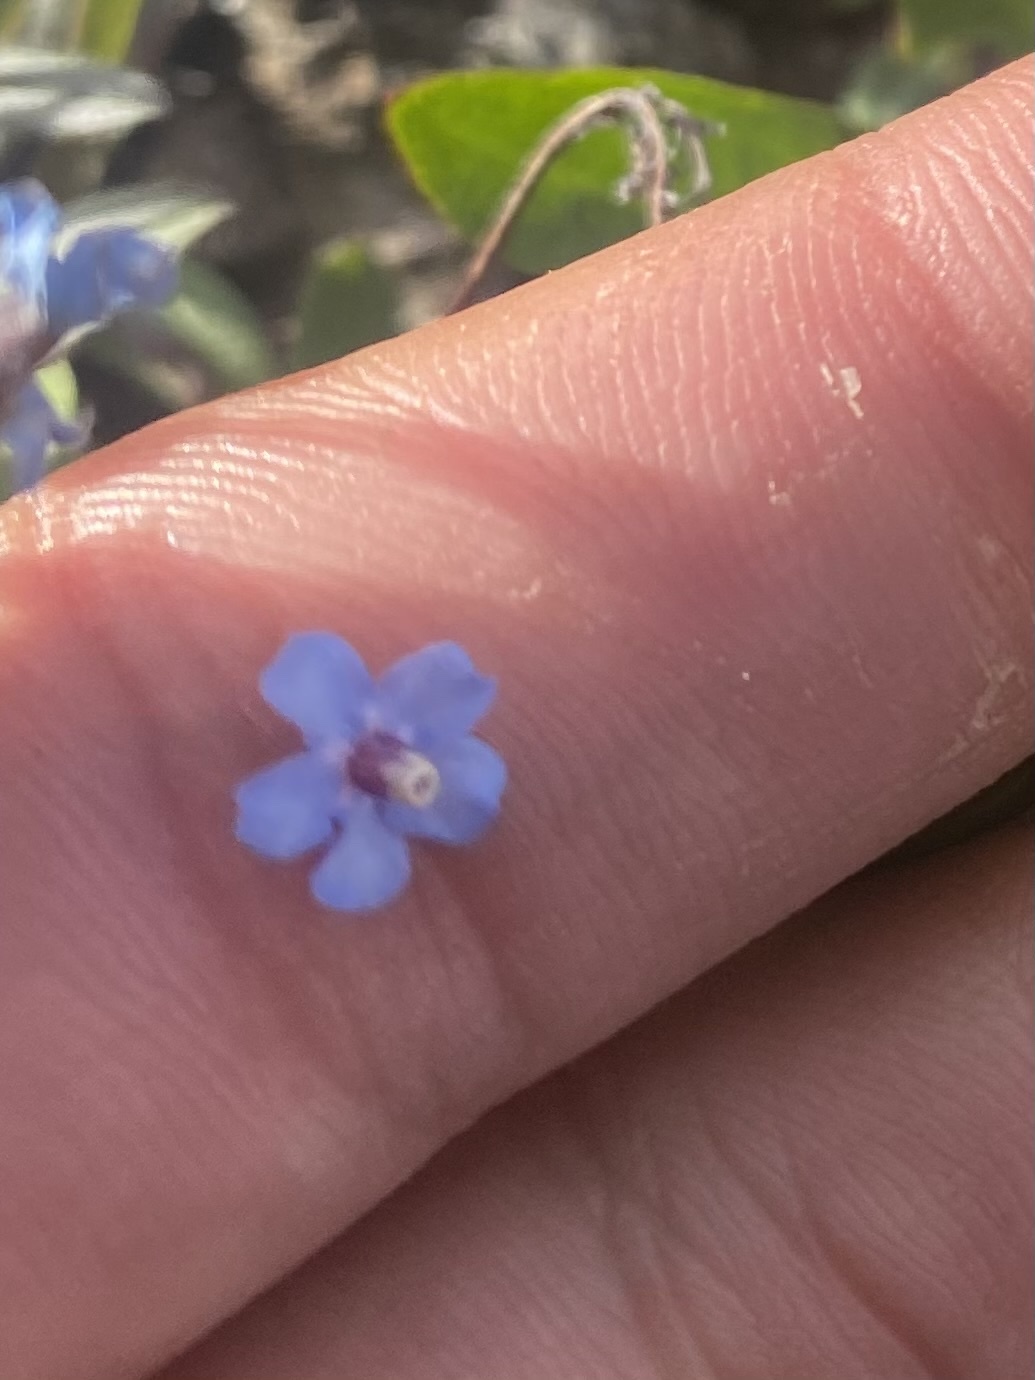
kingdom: Plantae
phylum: Tracheophyta
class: Magnoliopsida
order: Boraginales
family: Boraginaceae
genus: Myosotis
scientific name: Myosotis asiatica
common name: Asian forget-me-not
